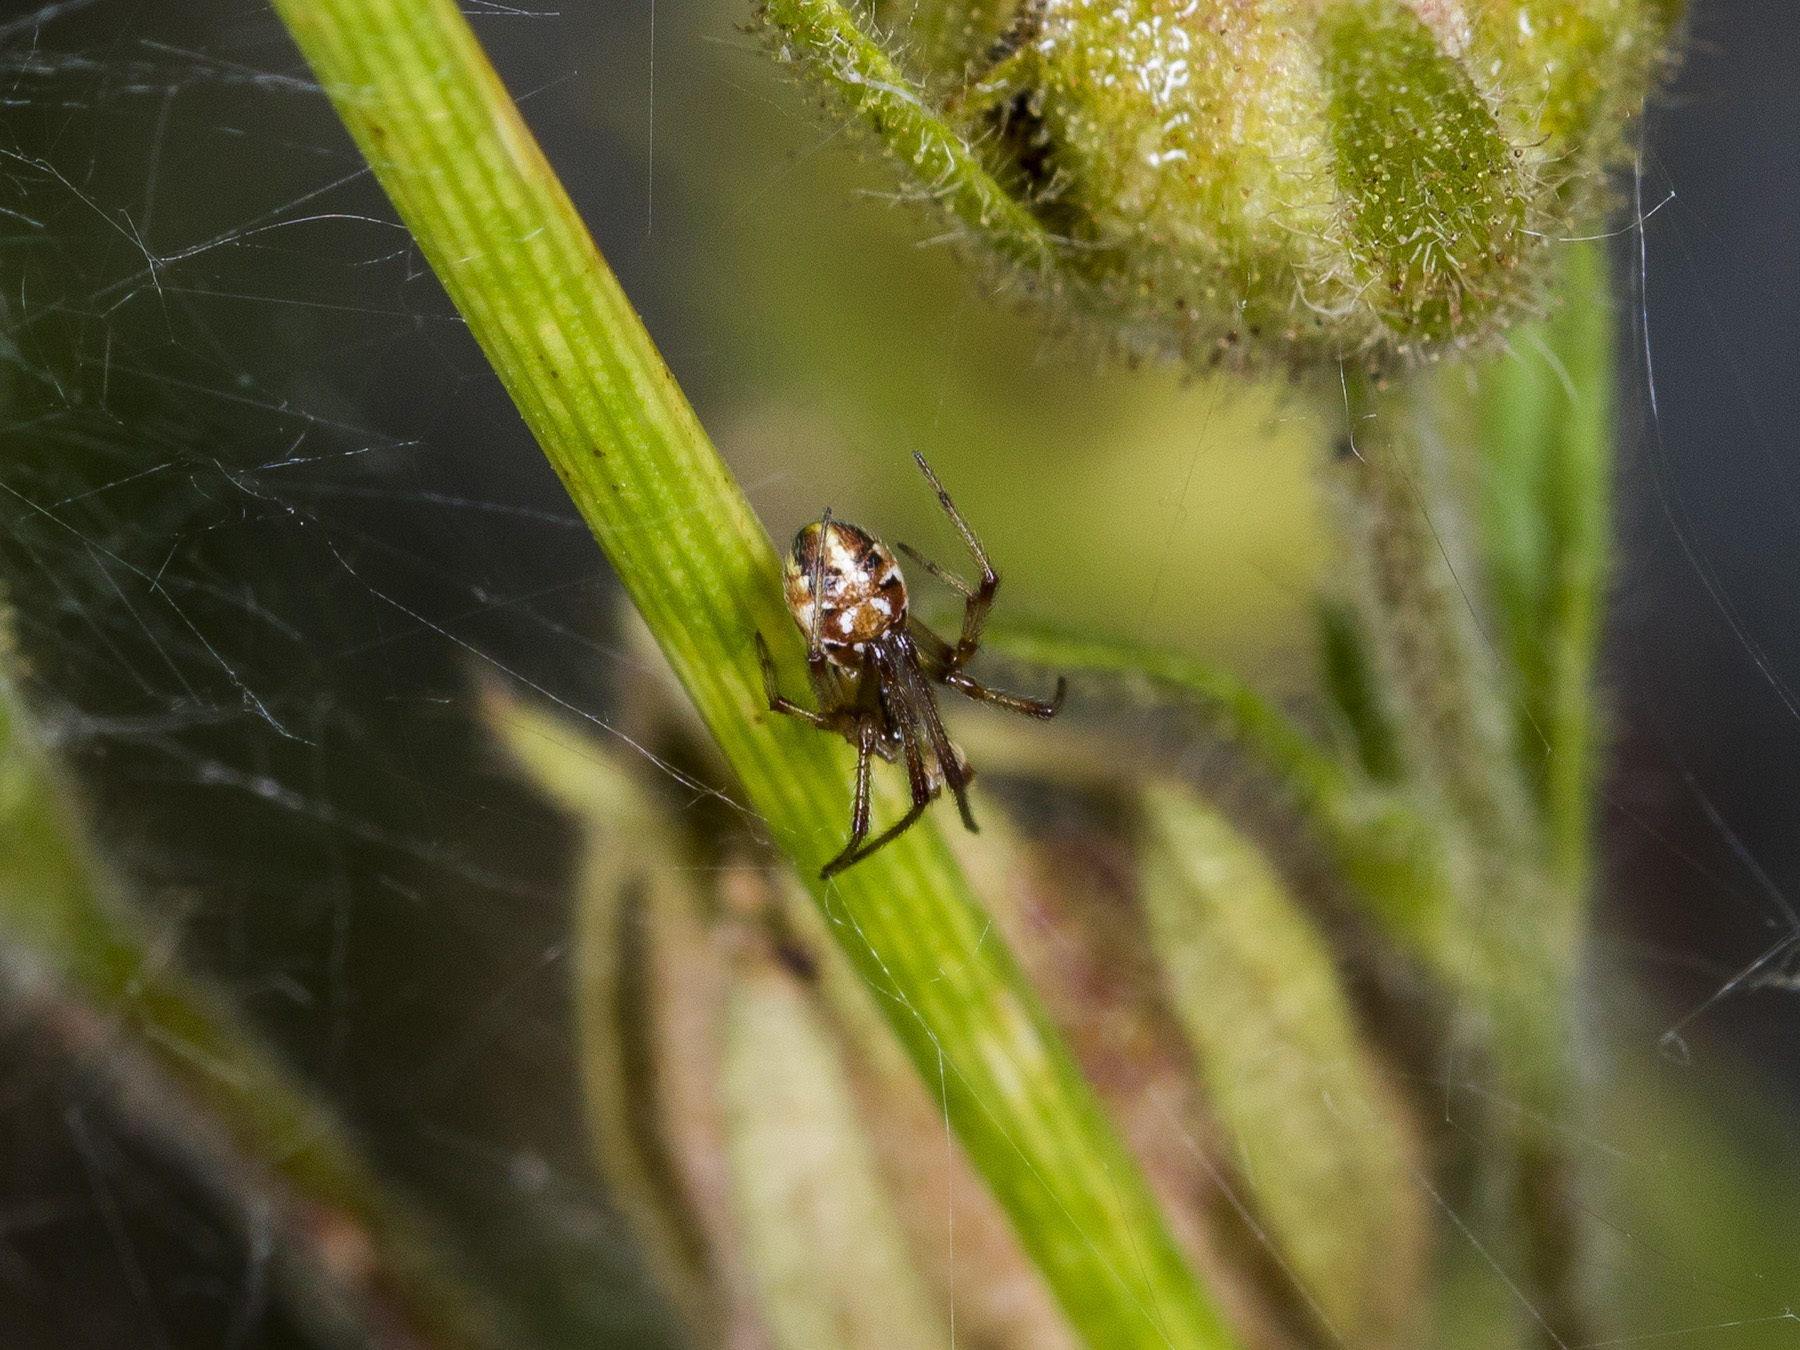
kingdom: Animalia
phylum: Arthropoda
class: Arachnida
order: Araneae
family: Theridiidae
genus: Phylloneta
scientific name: Phylloneta impressa
